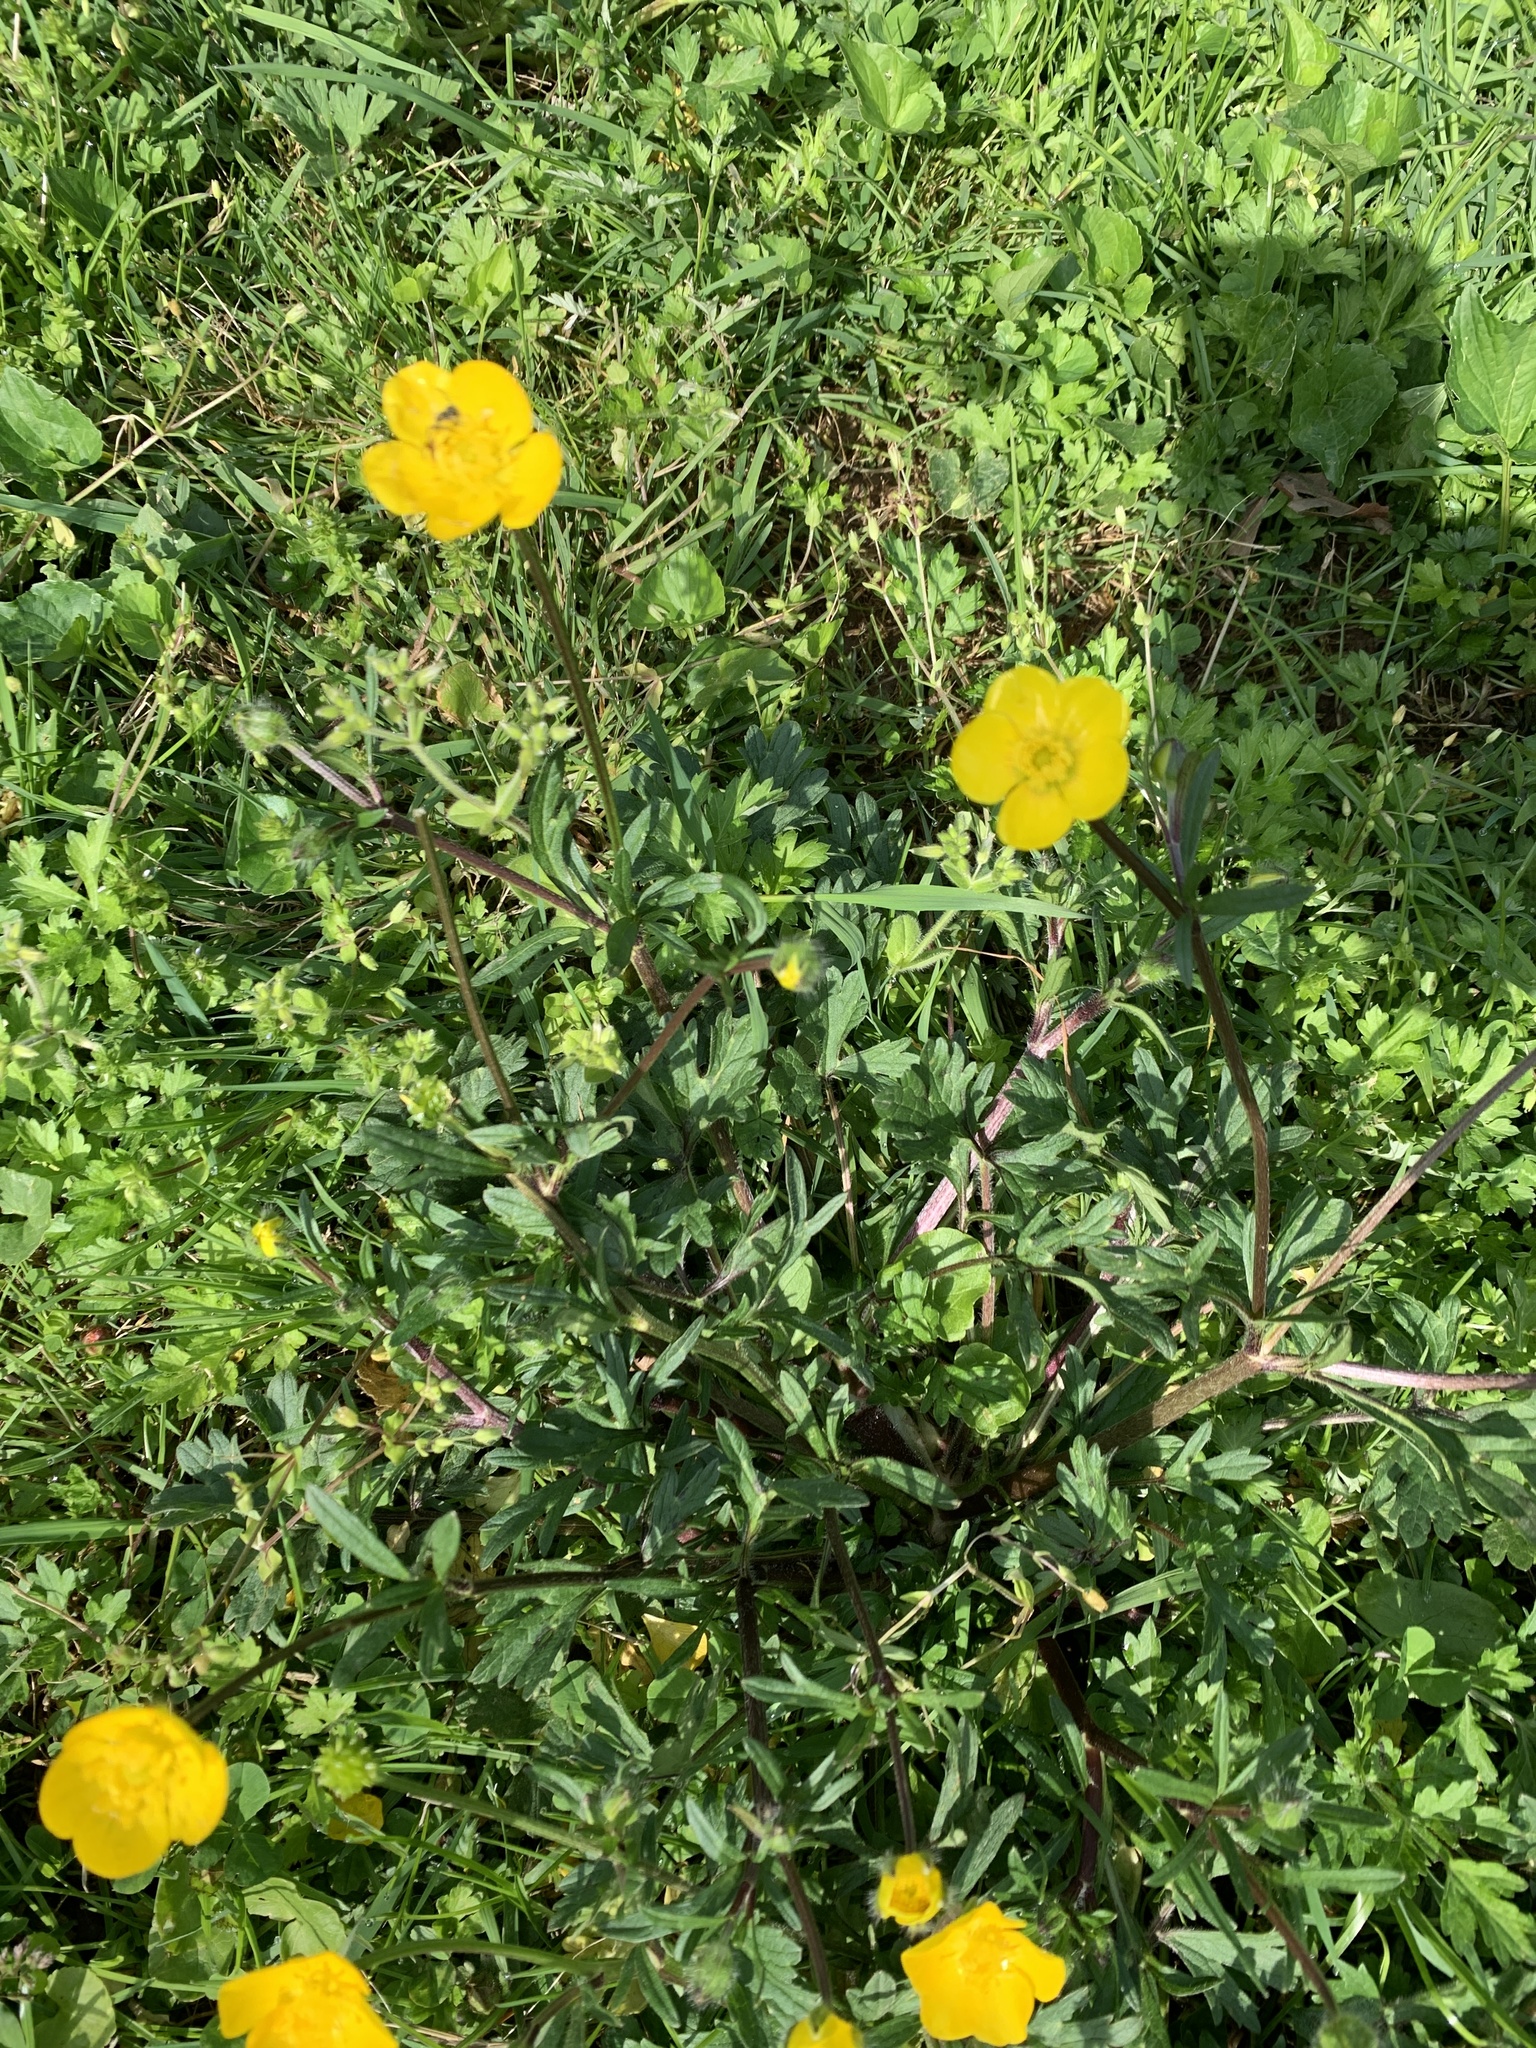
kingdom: Plantae
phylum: Tracheophyta
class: Magnoliopsida
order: Ranunculales
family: Ranunculaceae
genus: Ranunculus
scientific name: Ranunculus bulbosus
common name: Bulbous buttercup
